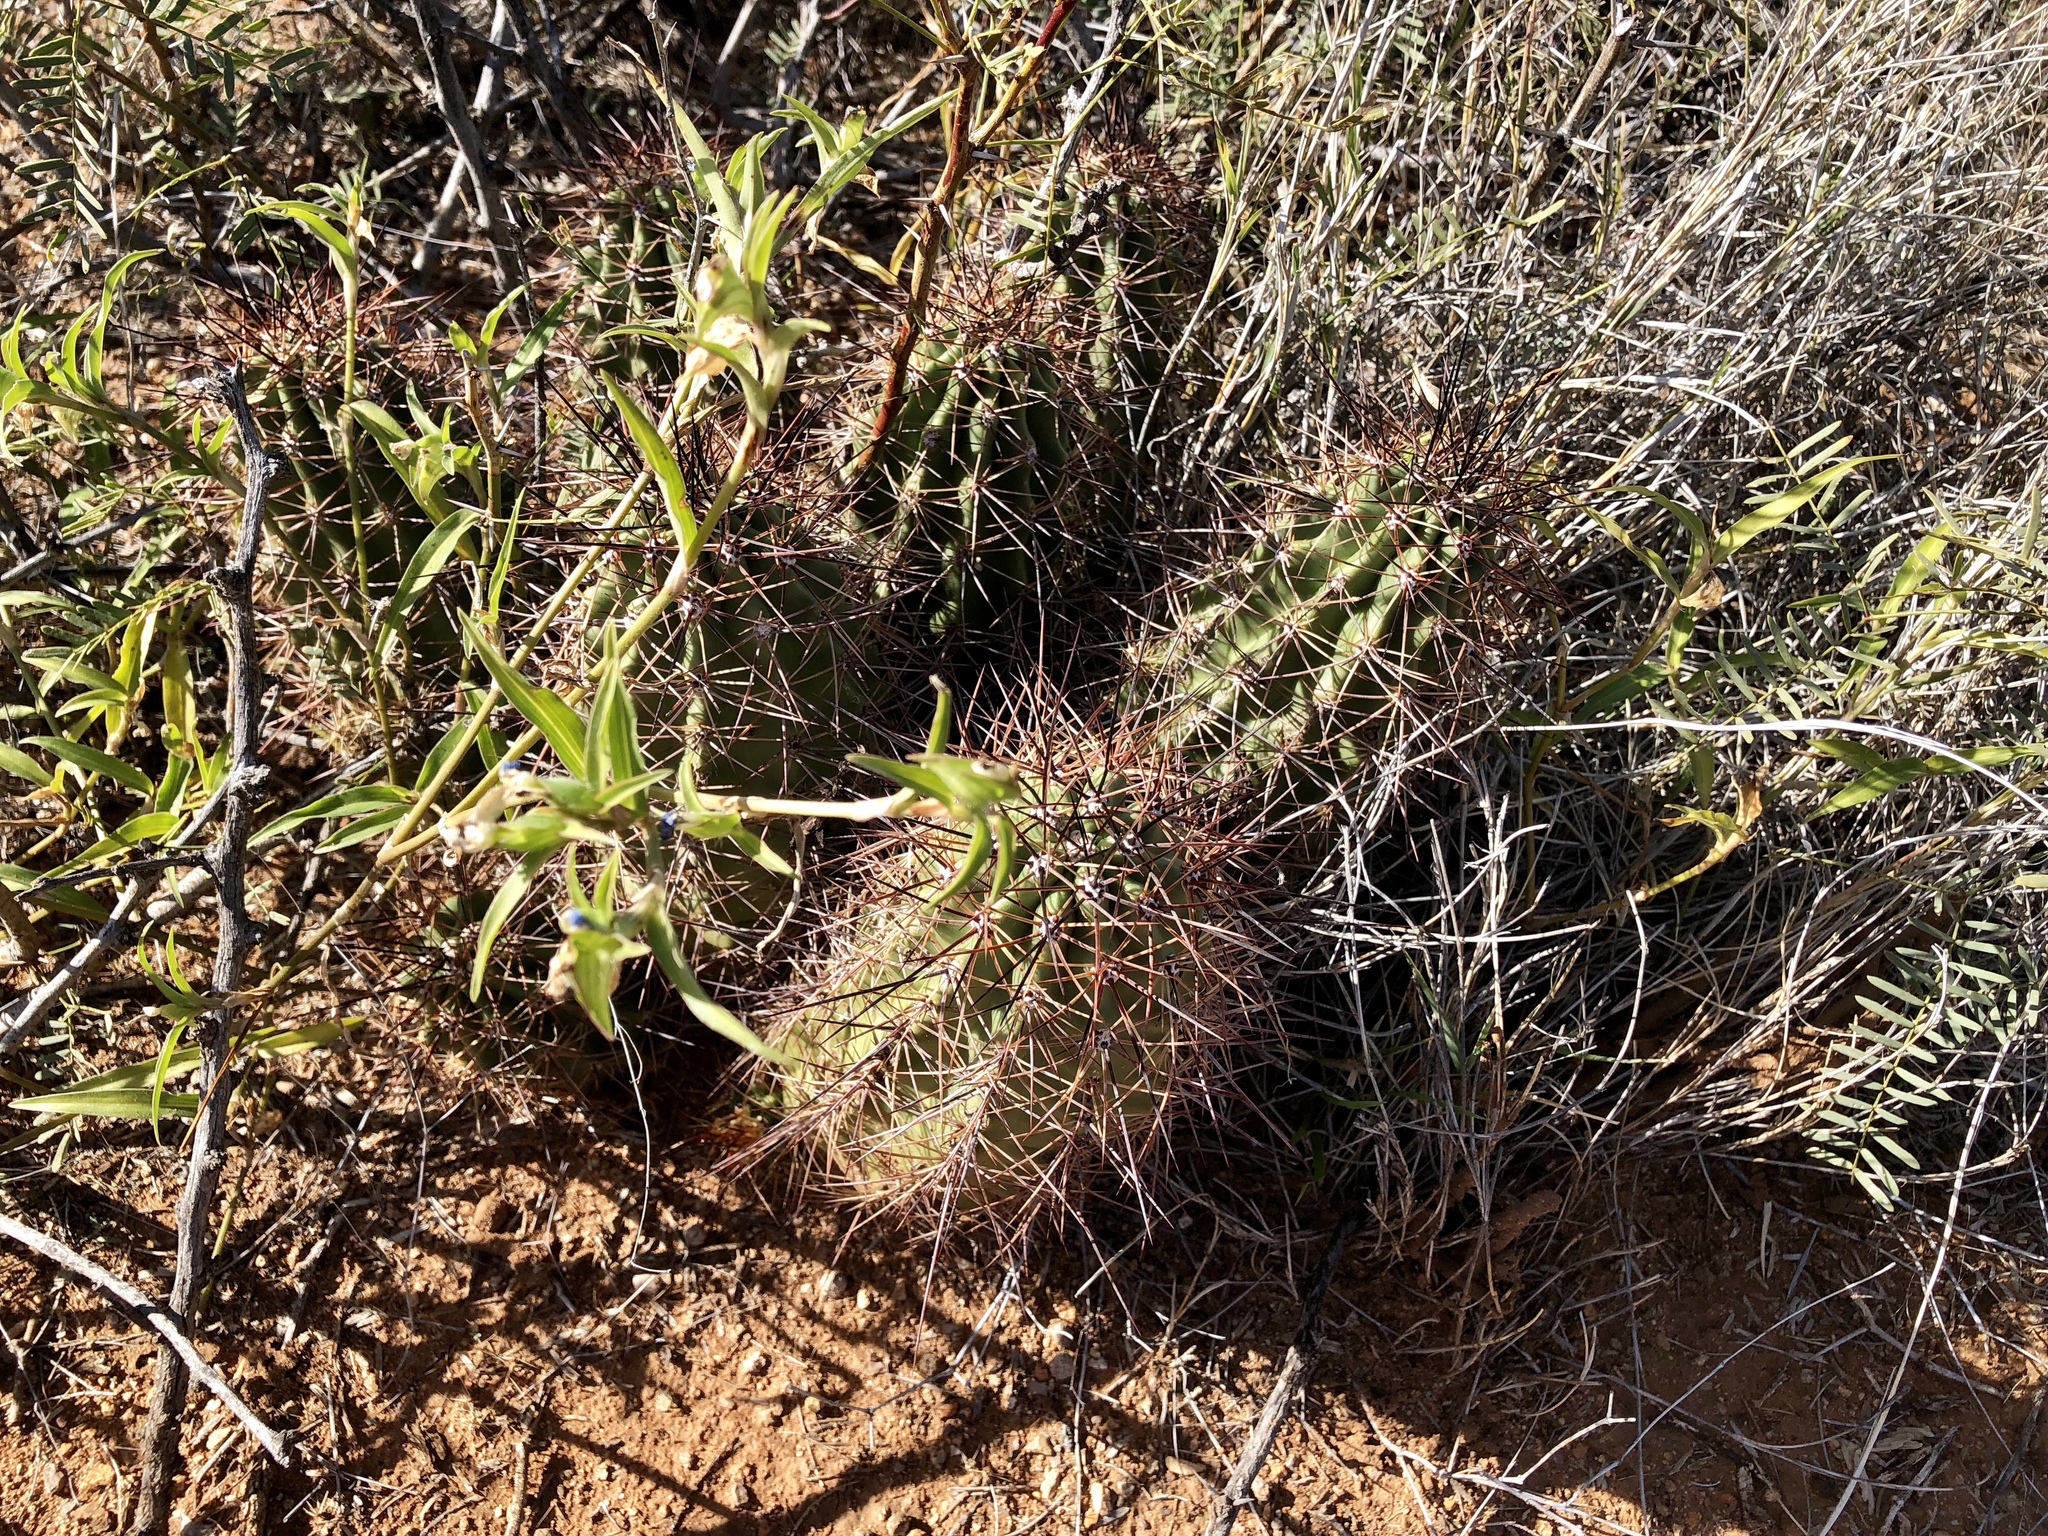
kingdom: Plantae
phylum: Tracheophyta
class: Magnoliopsida
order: Caryophyllales
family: Cactaceae
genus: Echinocereus
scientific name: Echinocereus coccineus
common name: Scarlet hedgehog cactus
